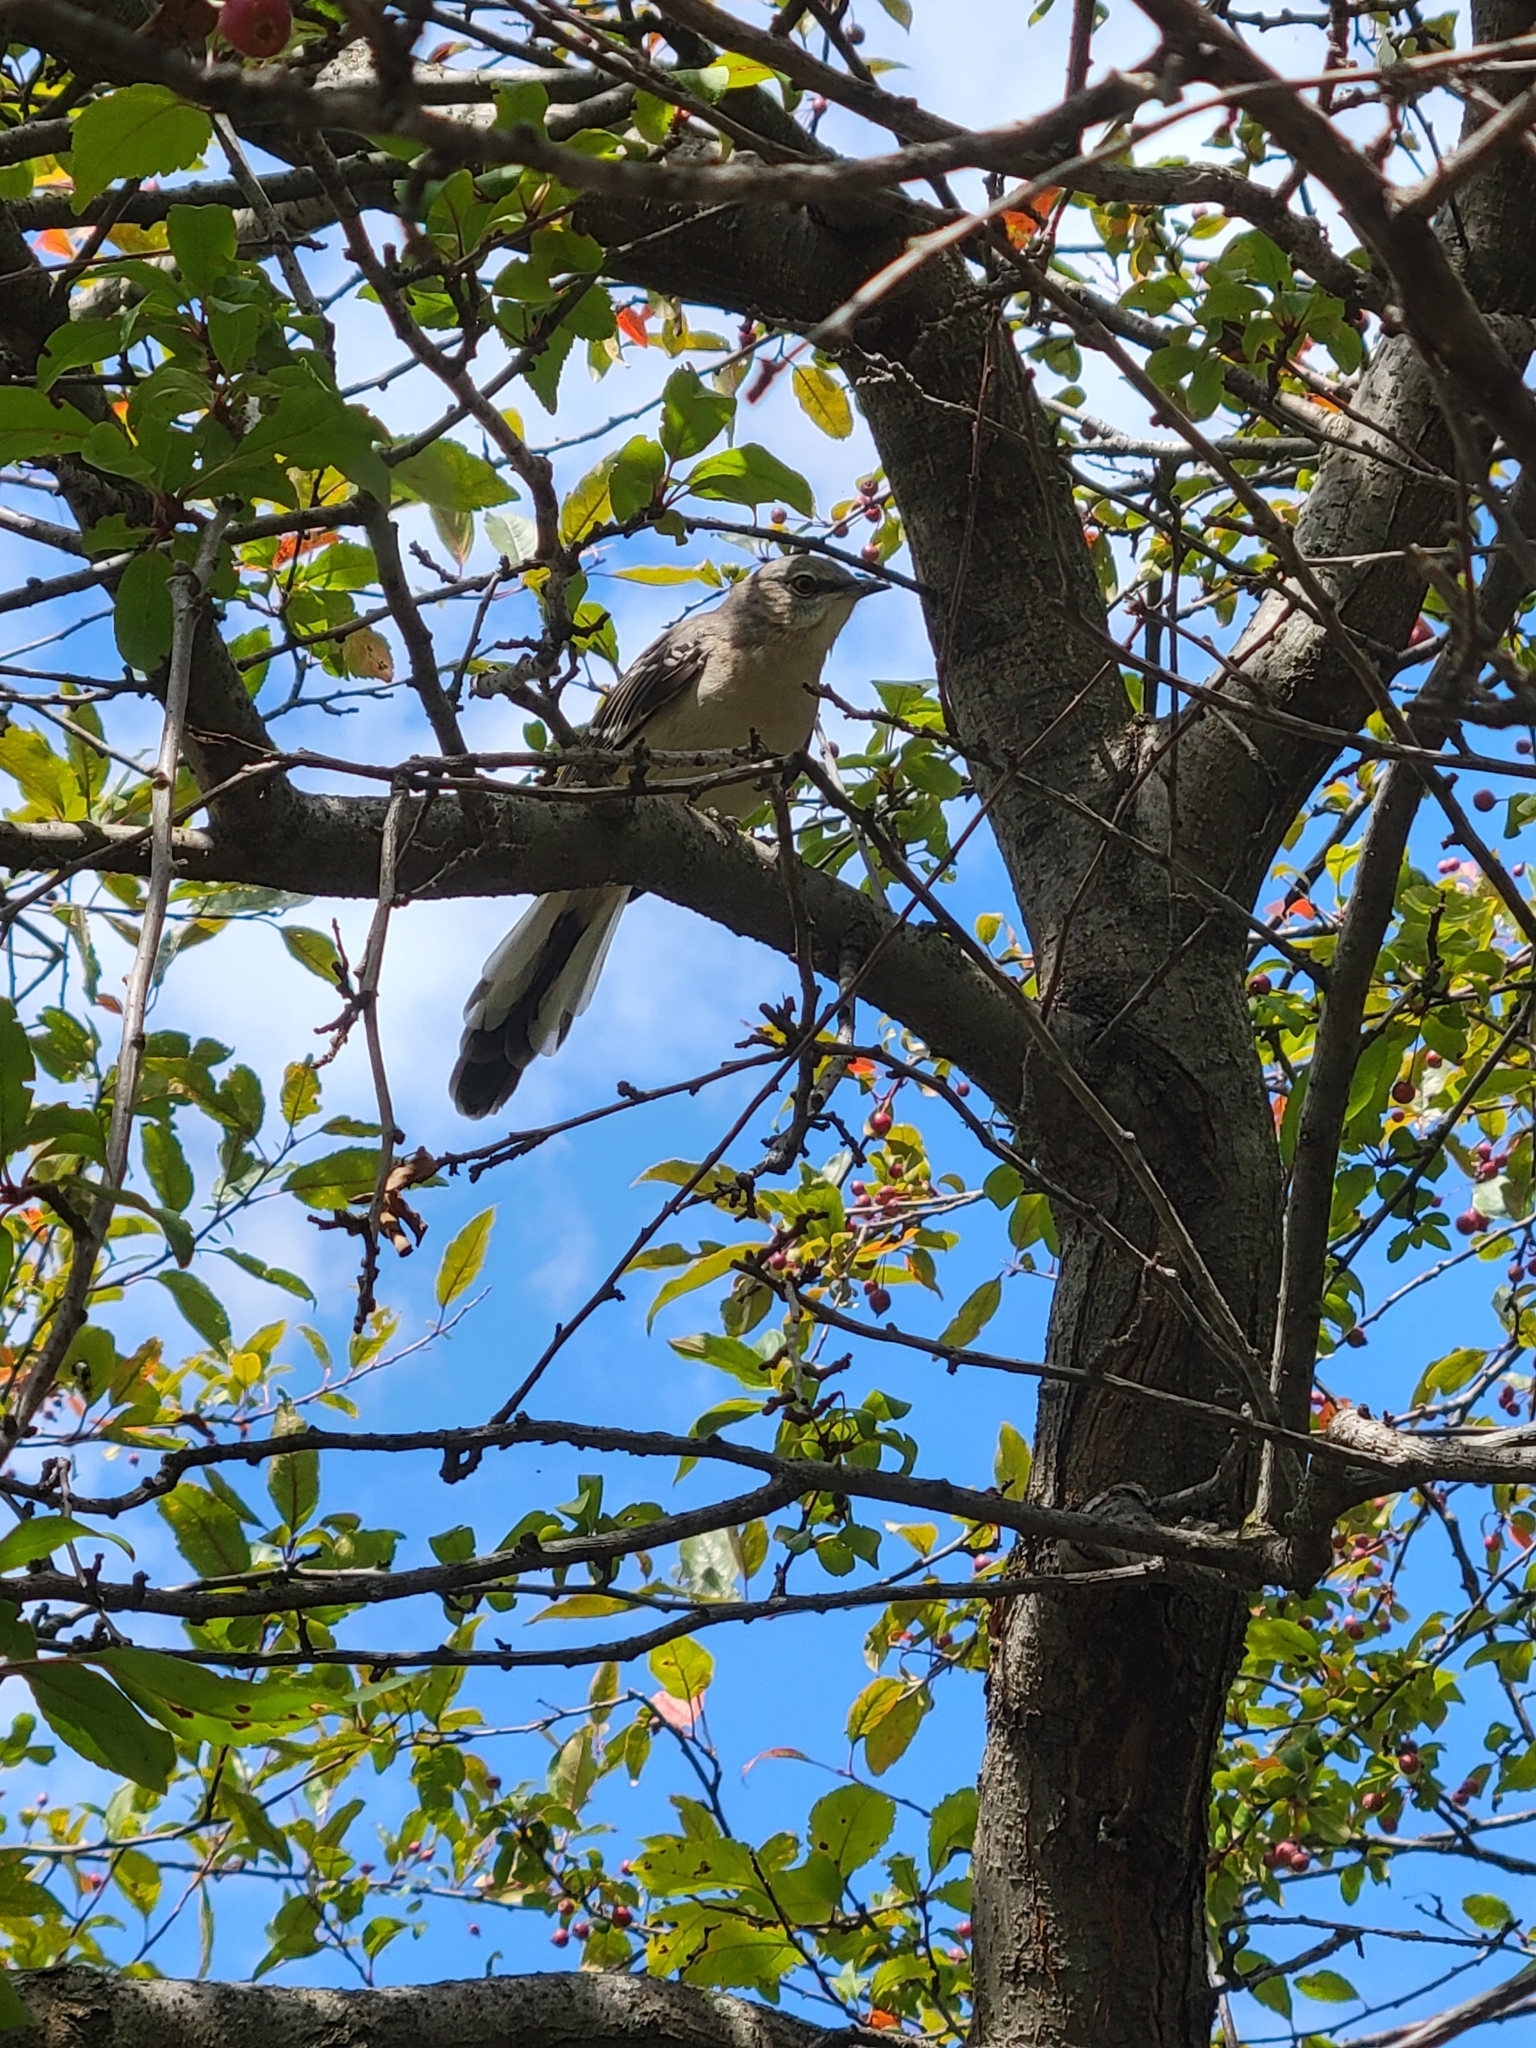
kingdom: Animalia
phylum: Chordata
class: Aves
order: Passeriformes
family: Mimidae
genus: Mimus
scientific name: Mimus polyglottos
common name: Northern mockingbird
